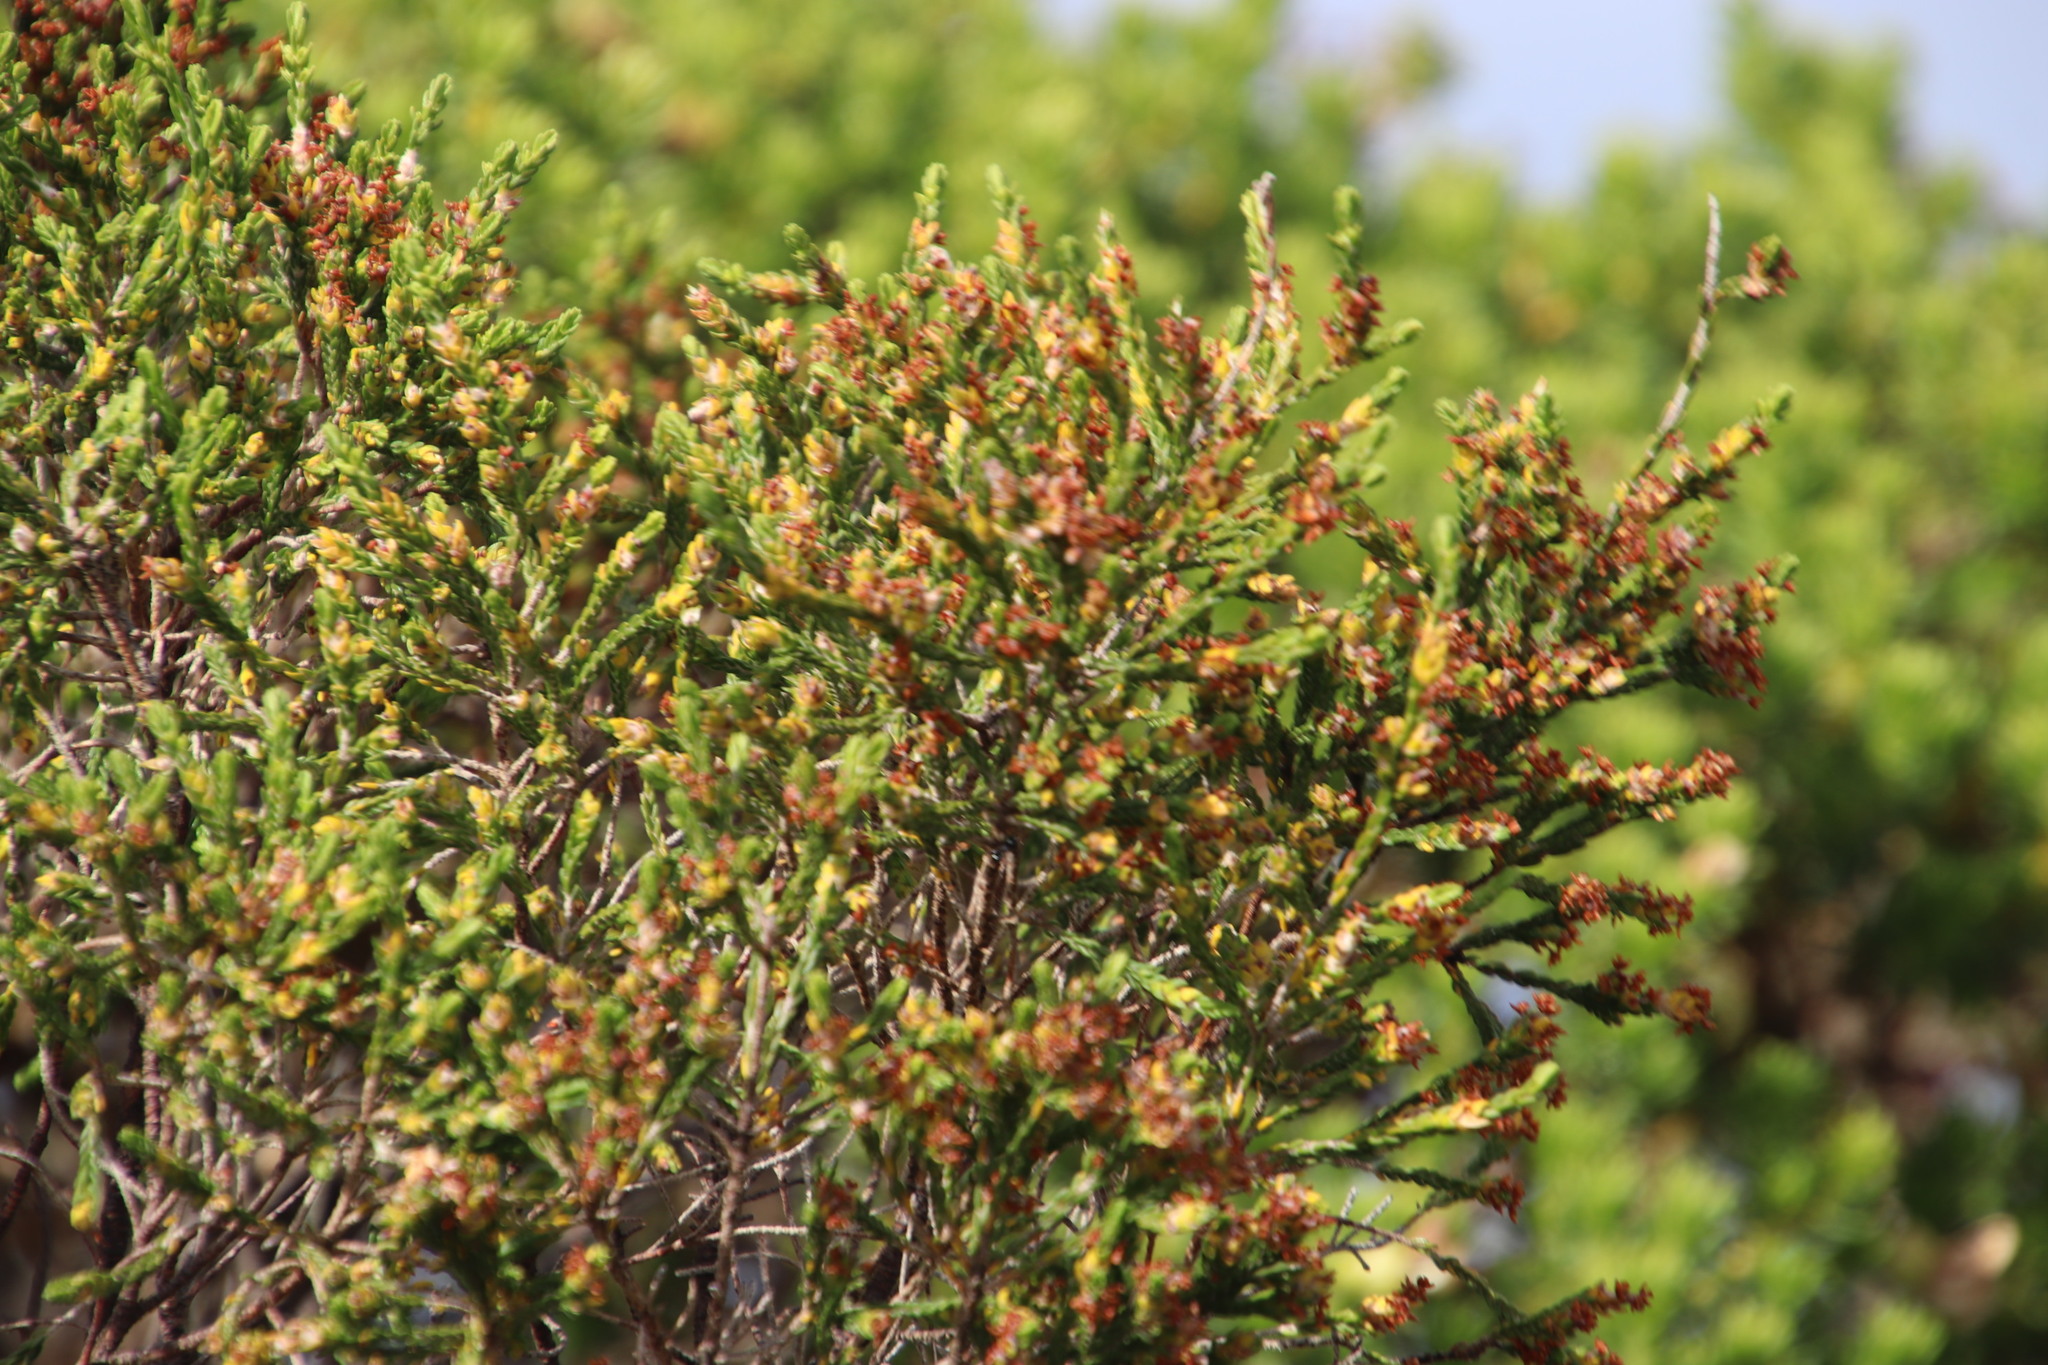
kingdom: Plantae
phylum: Tracheophyta
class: Magnoliopsida
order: Malvales
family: Thymelaeaceae
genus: Passerina
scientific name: Passerina corymbosa
